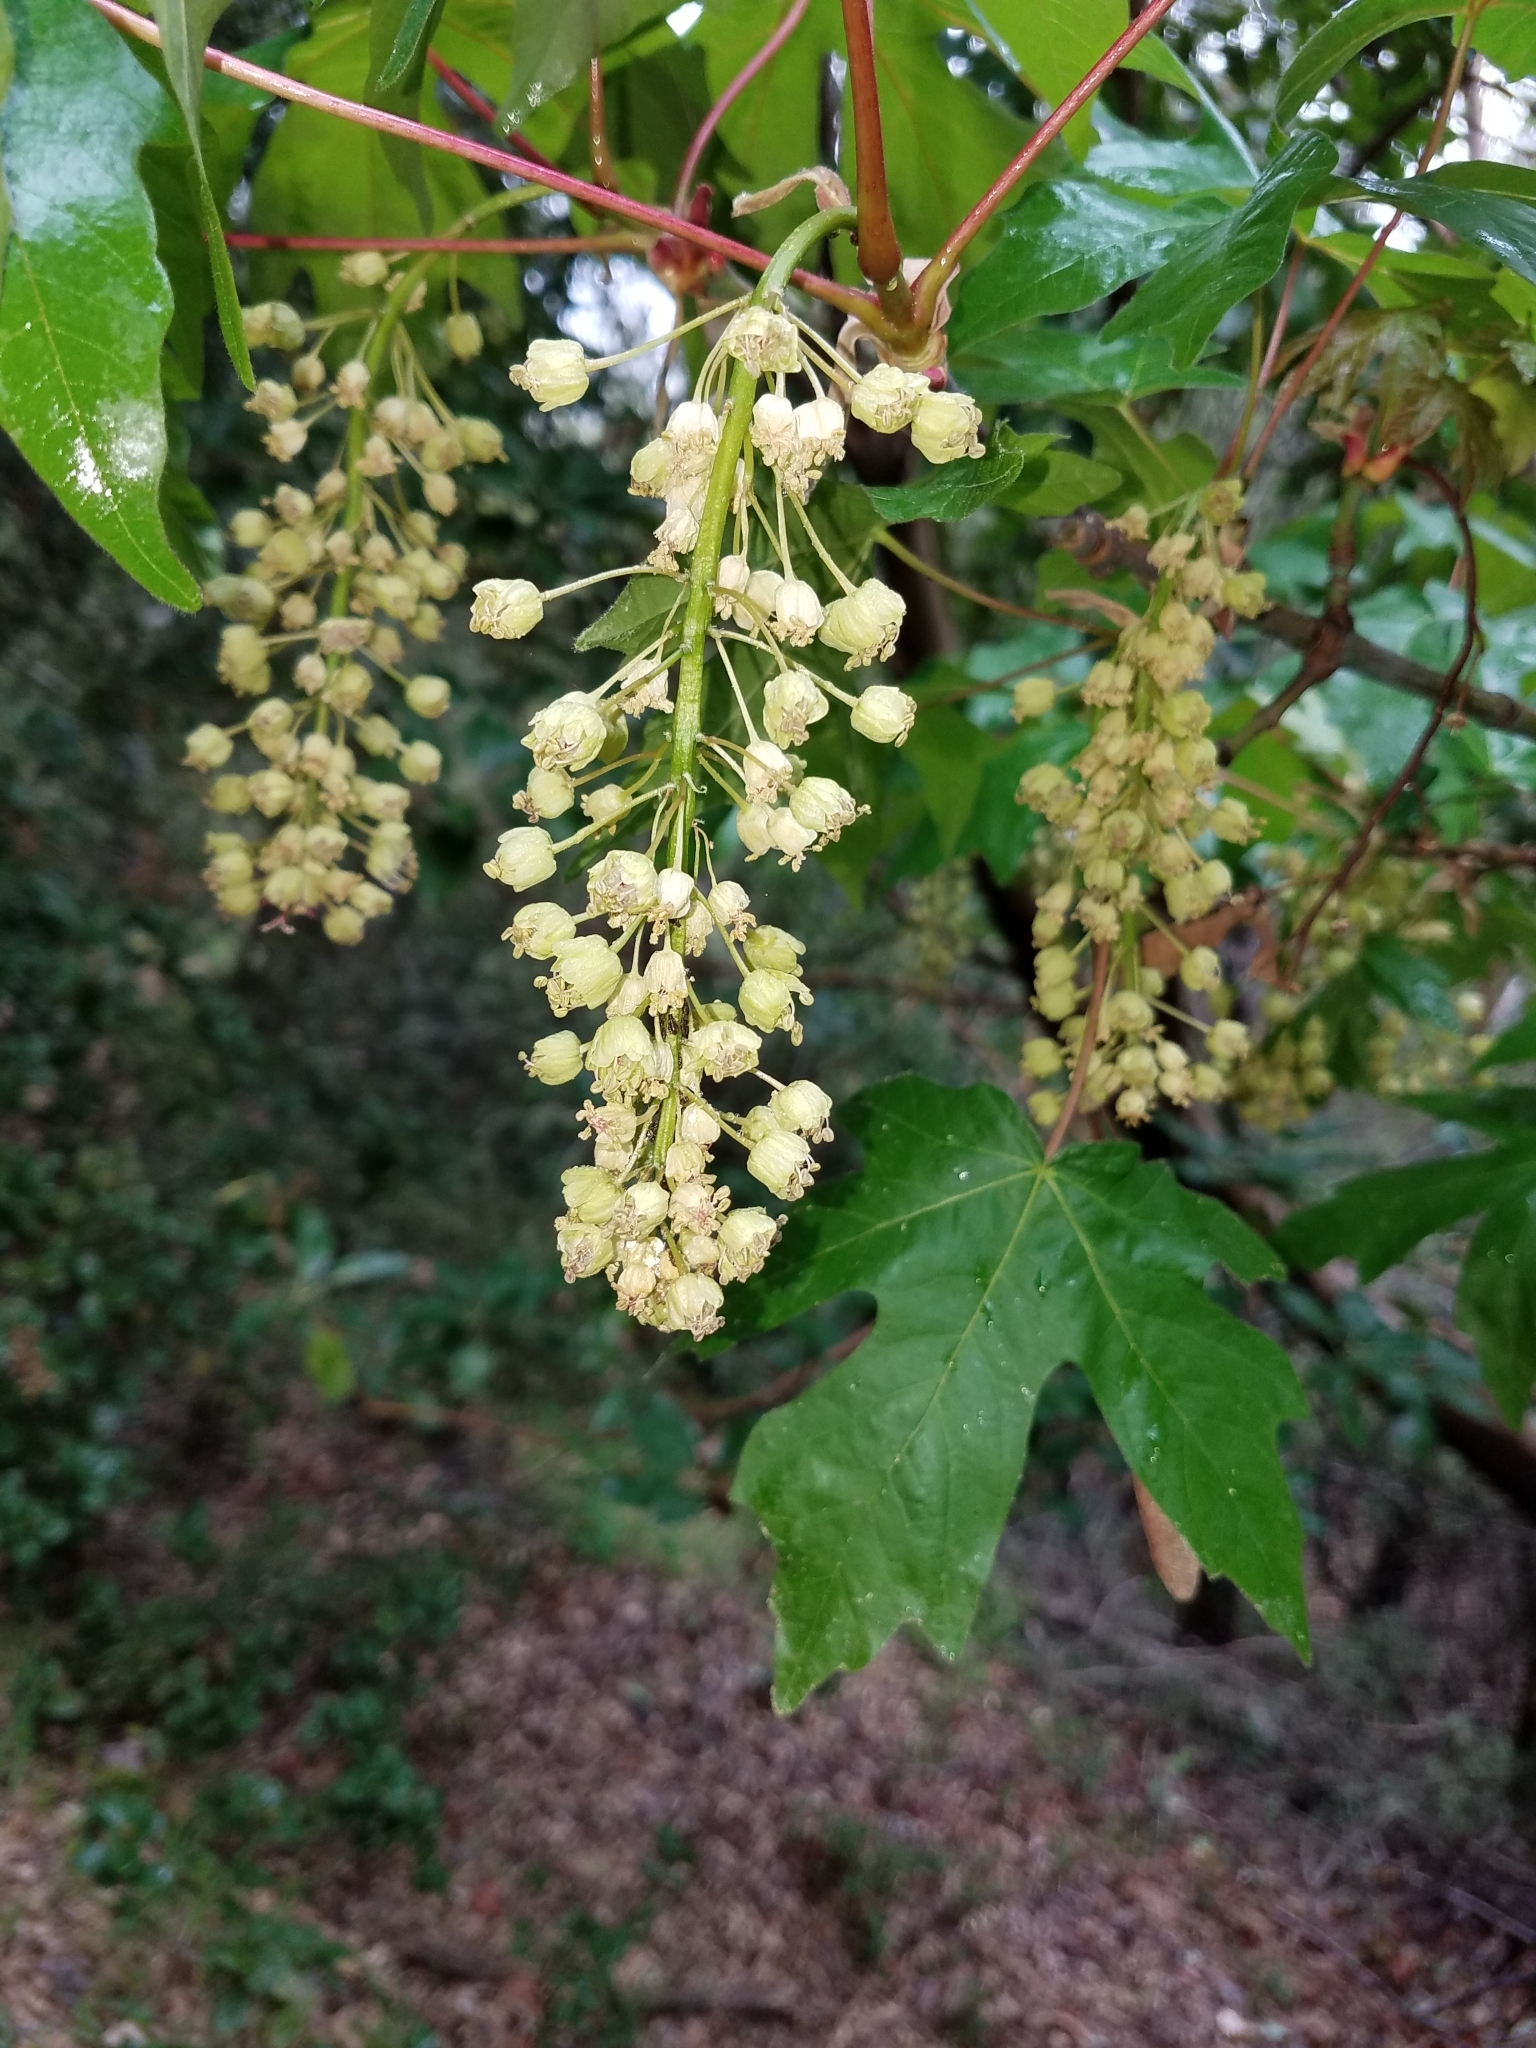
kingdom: Plantae
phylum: Tracheophyta
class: Magnoliopsida
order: Sapindales
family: Sapindaceae
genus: Acer
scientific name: Acer macrophyllum
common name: Oregon maple
